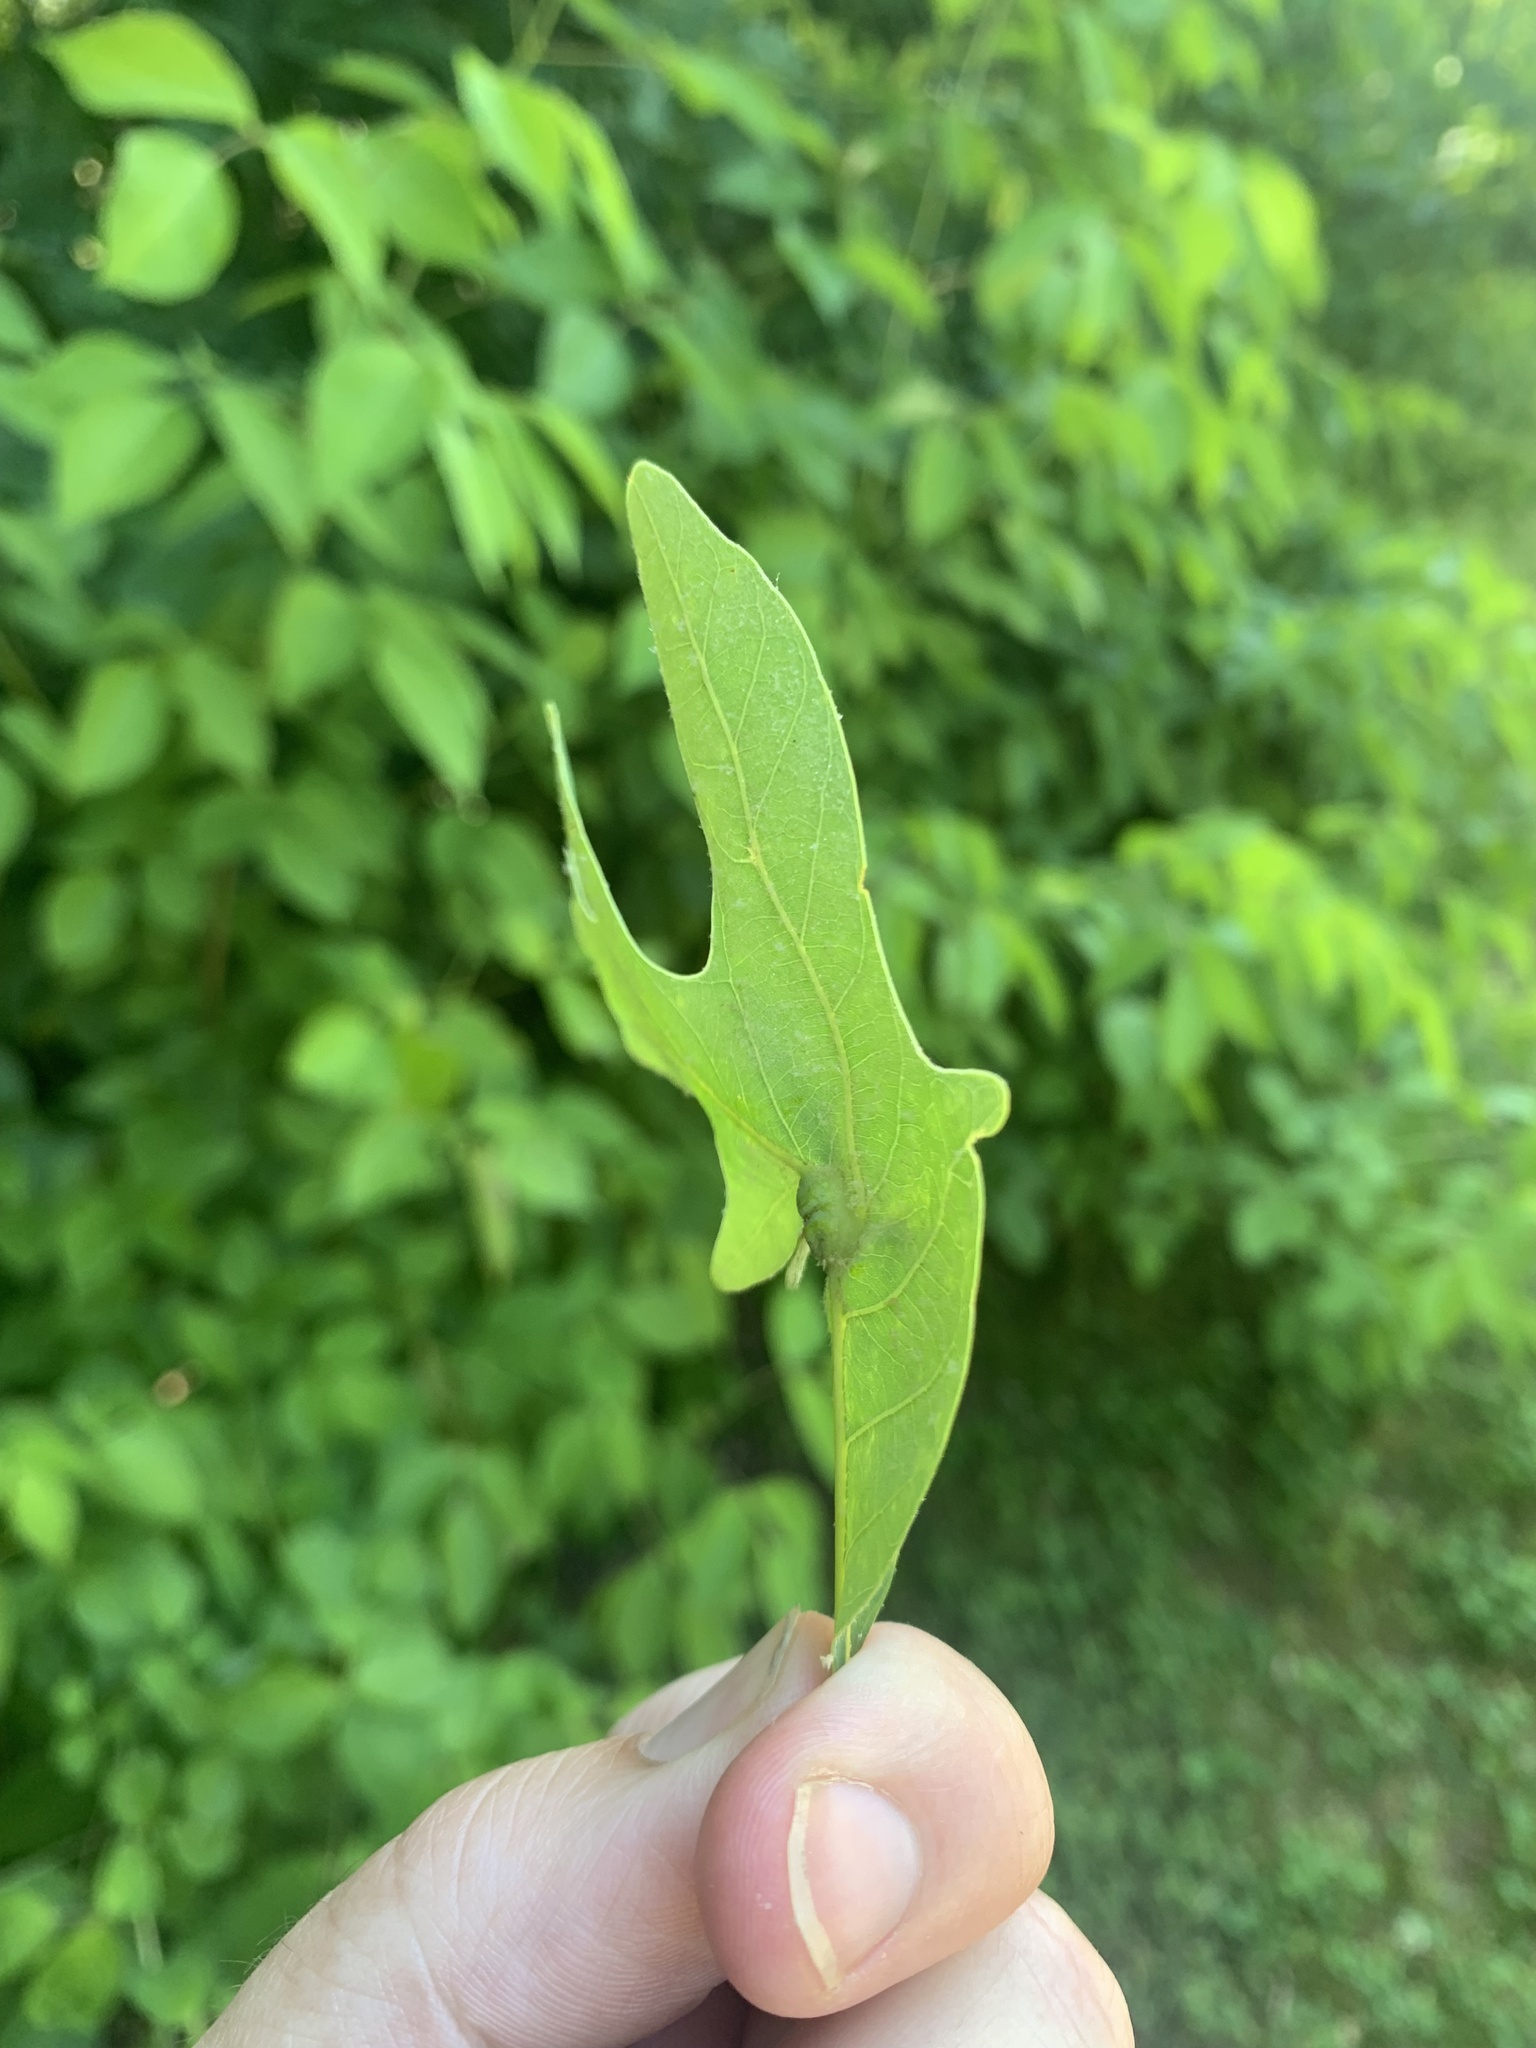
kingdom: Animalia
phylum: Arthropoda
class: Insecta
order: Hymenoptera
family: Cynipidae
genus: Andricus
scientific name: Andricus
